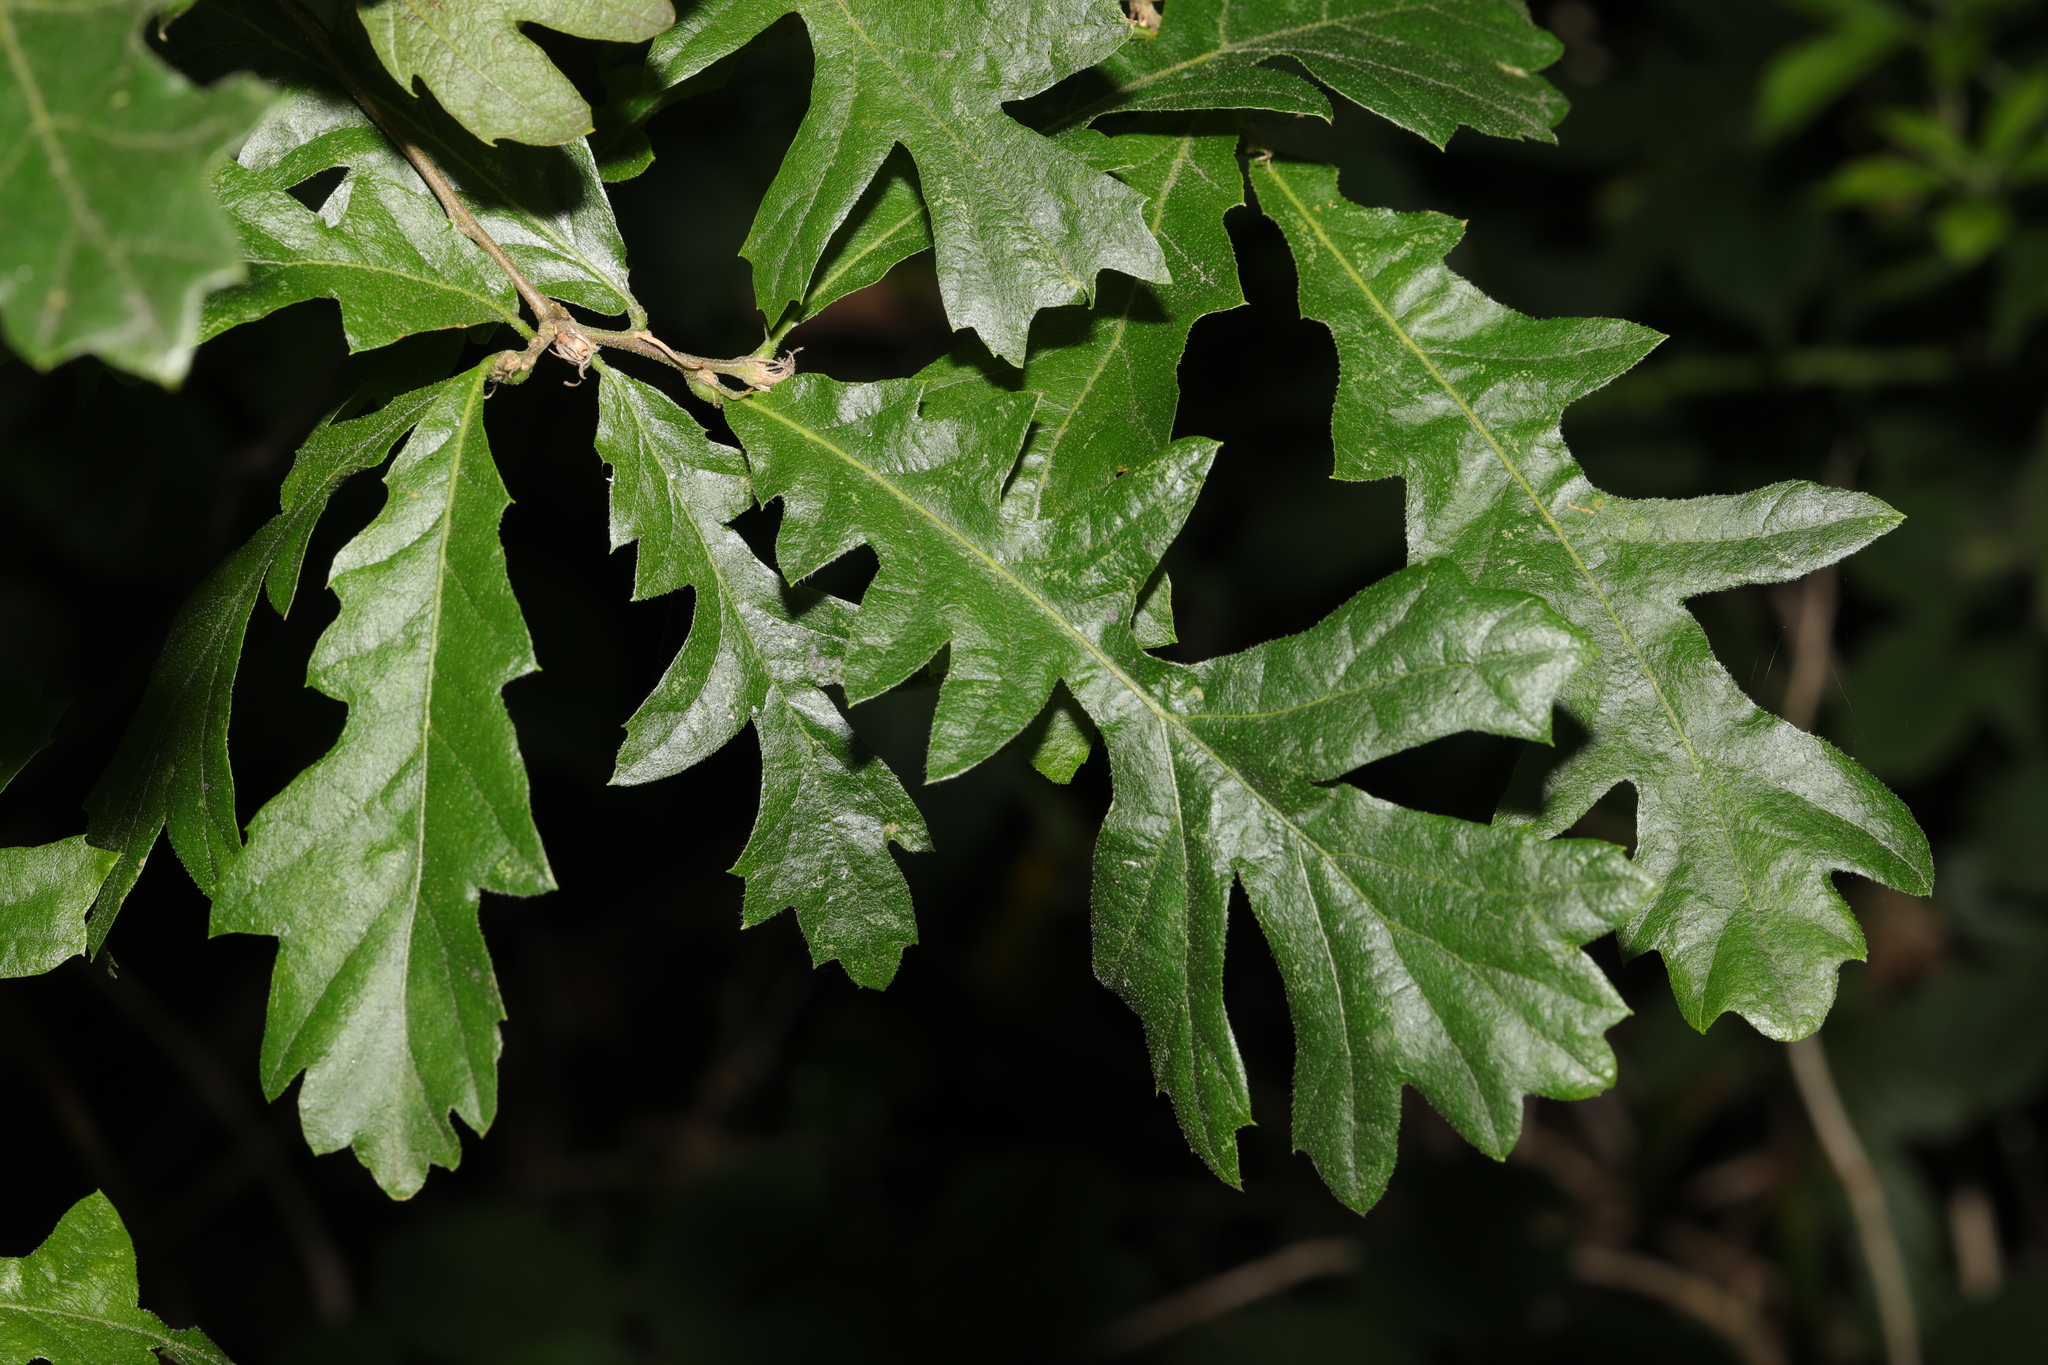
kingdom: Plantae
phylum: Tracheophyta
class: Magnoliopsida
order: Fagales
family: Fagaceae
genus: Quercus
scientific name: Quercus cerris
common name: Turkey oak
